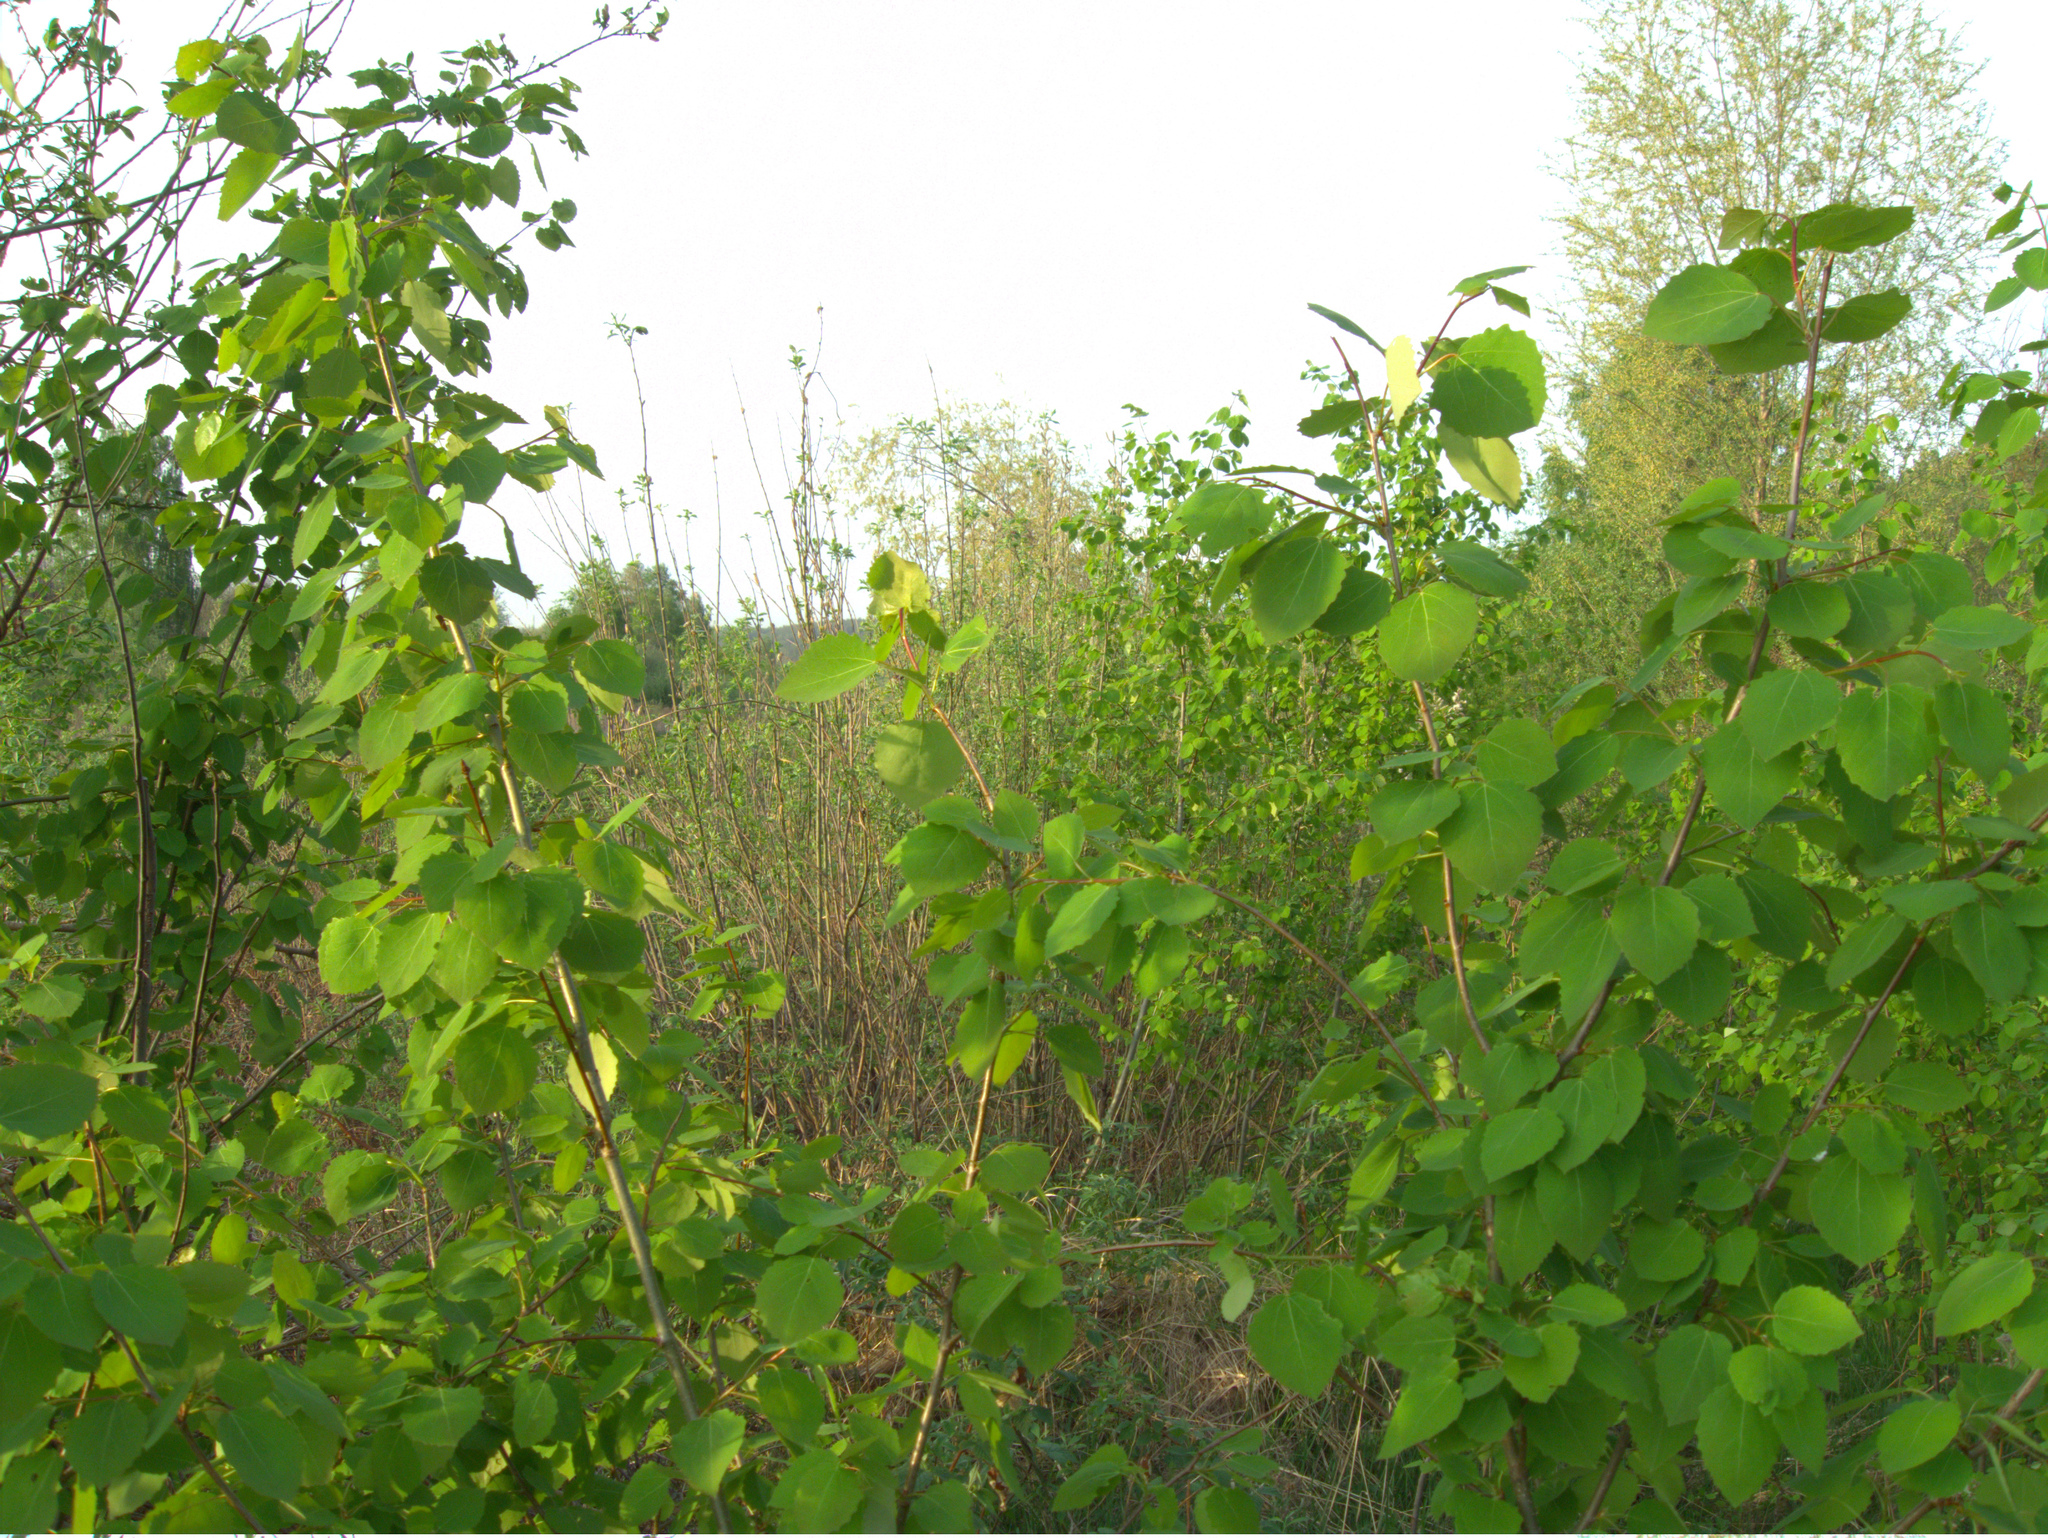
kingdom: Plantae
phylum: Tracheophyta
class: Magnoliopsida
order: Malpighiales
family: Salicaceae
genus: Populus
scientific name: Populus tremula
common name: European aspen
